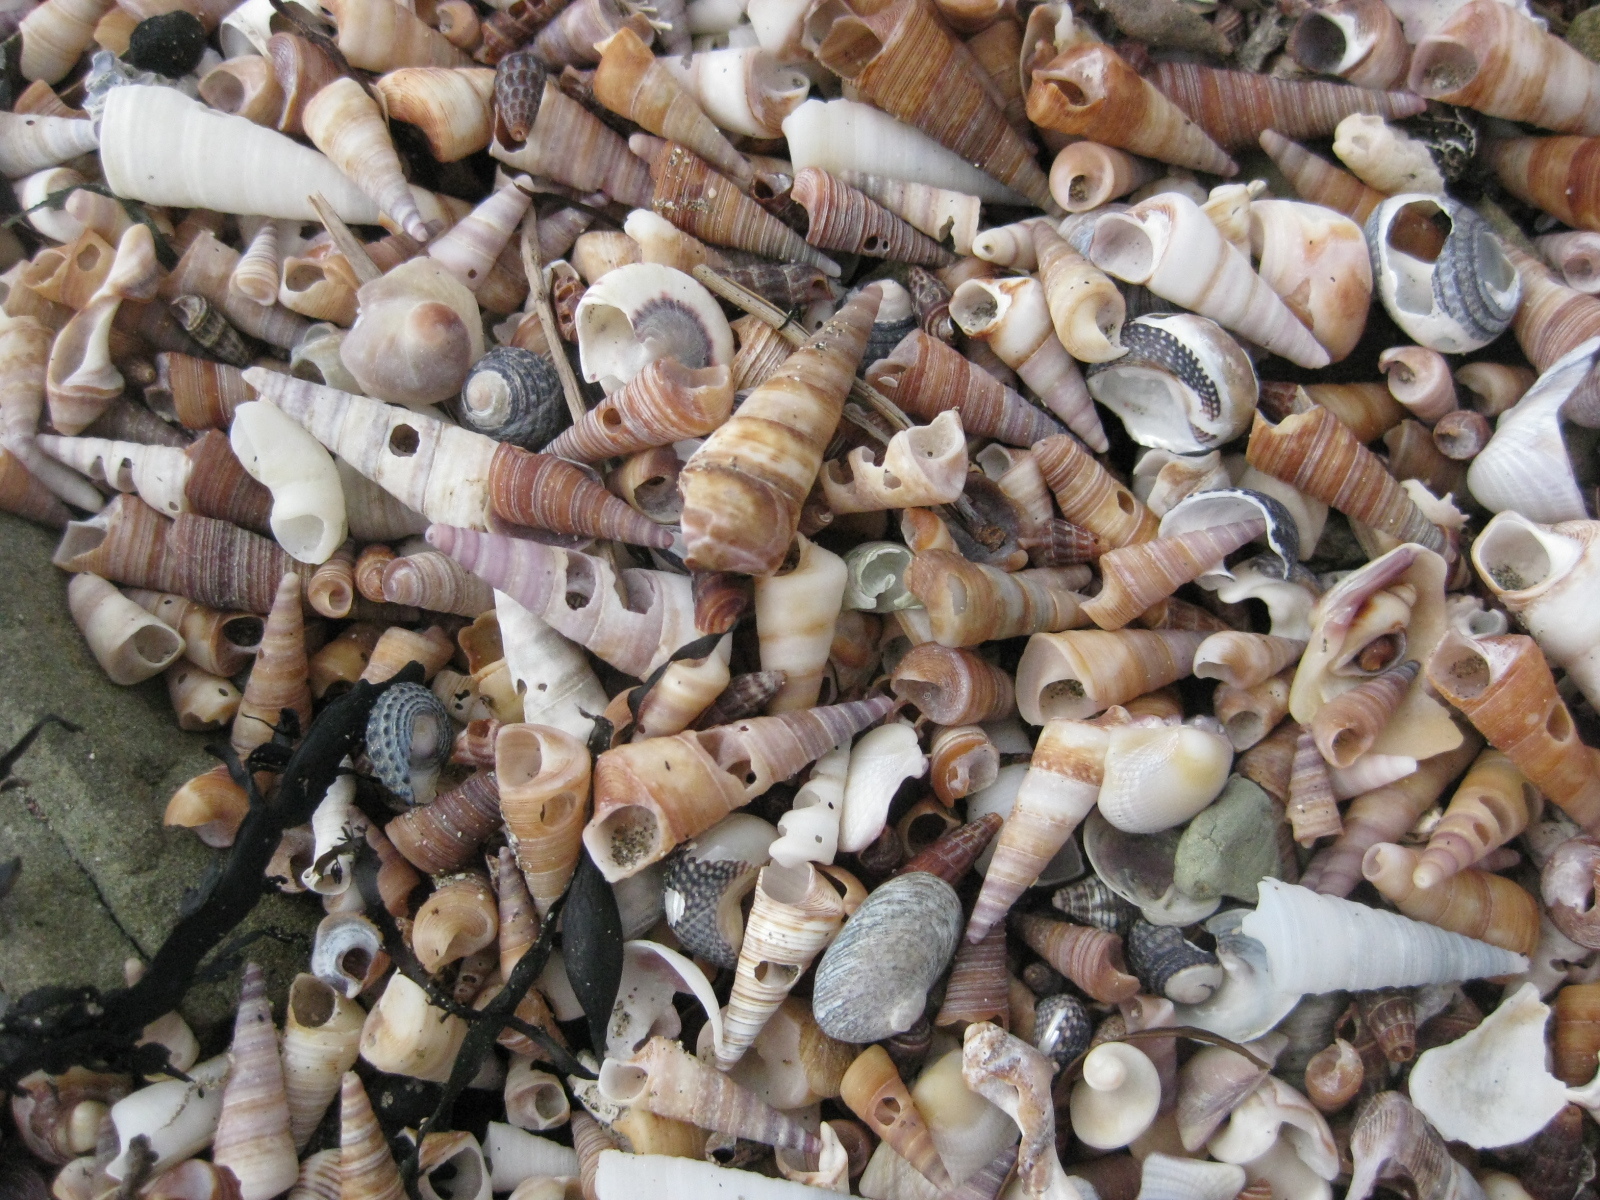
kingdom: Animalia
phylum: Mollusca
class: Gastropoda
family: Turritellidae
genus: Maoricolpus
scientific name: Maoricolpus roseus
